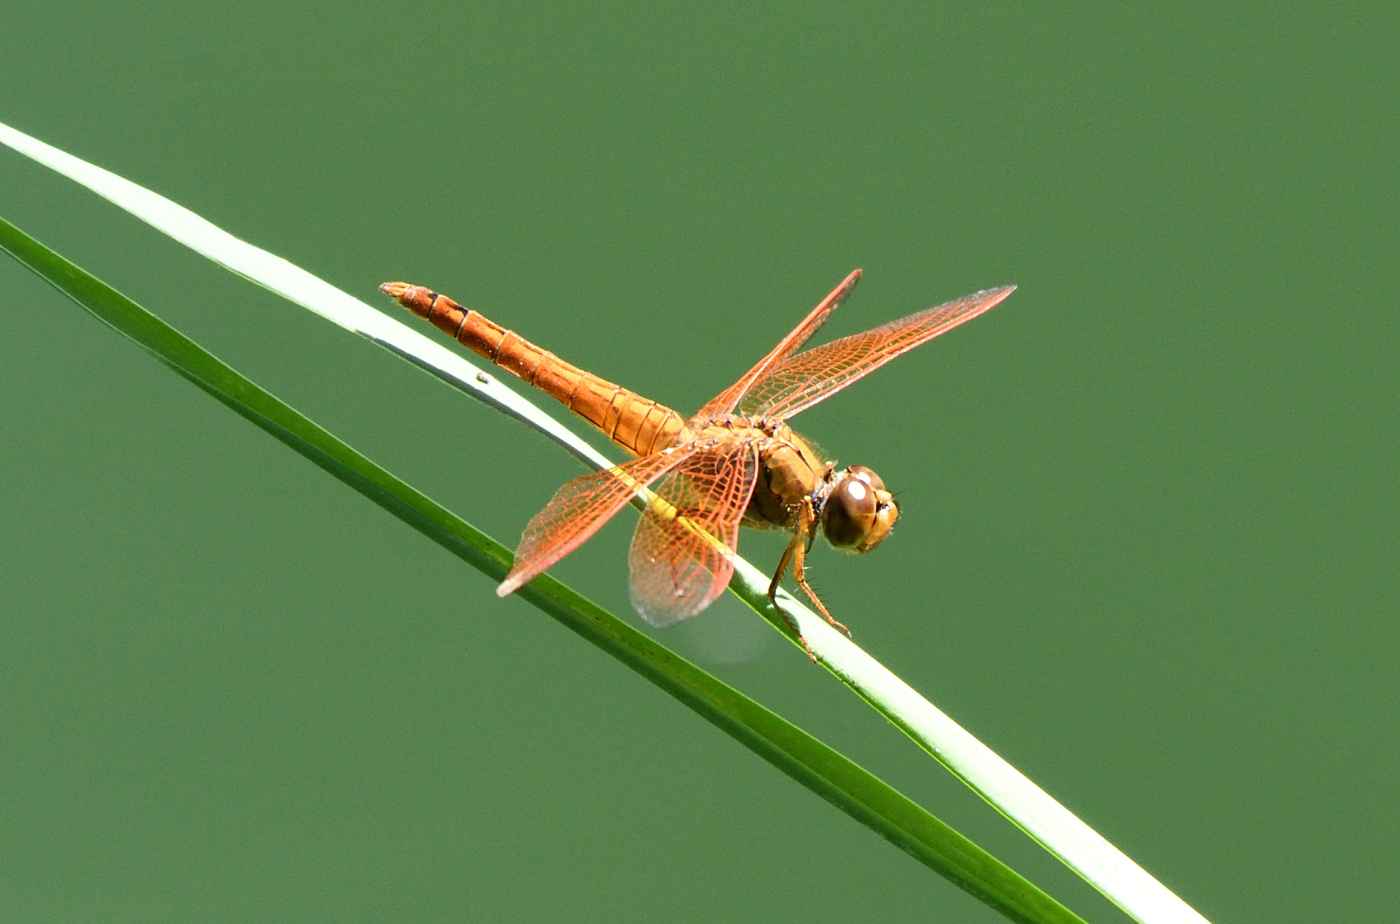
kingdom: Animalia
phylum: Arthropoda
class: Insecta
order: Odonata
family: Libellulidae
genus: Brachythemis
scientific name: Brachythemis contaminata
